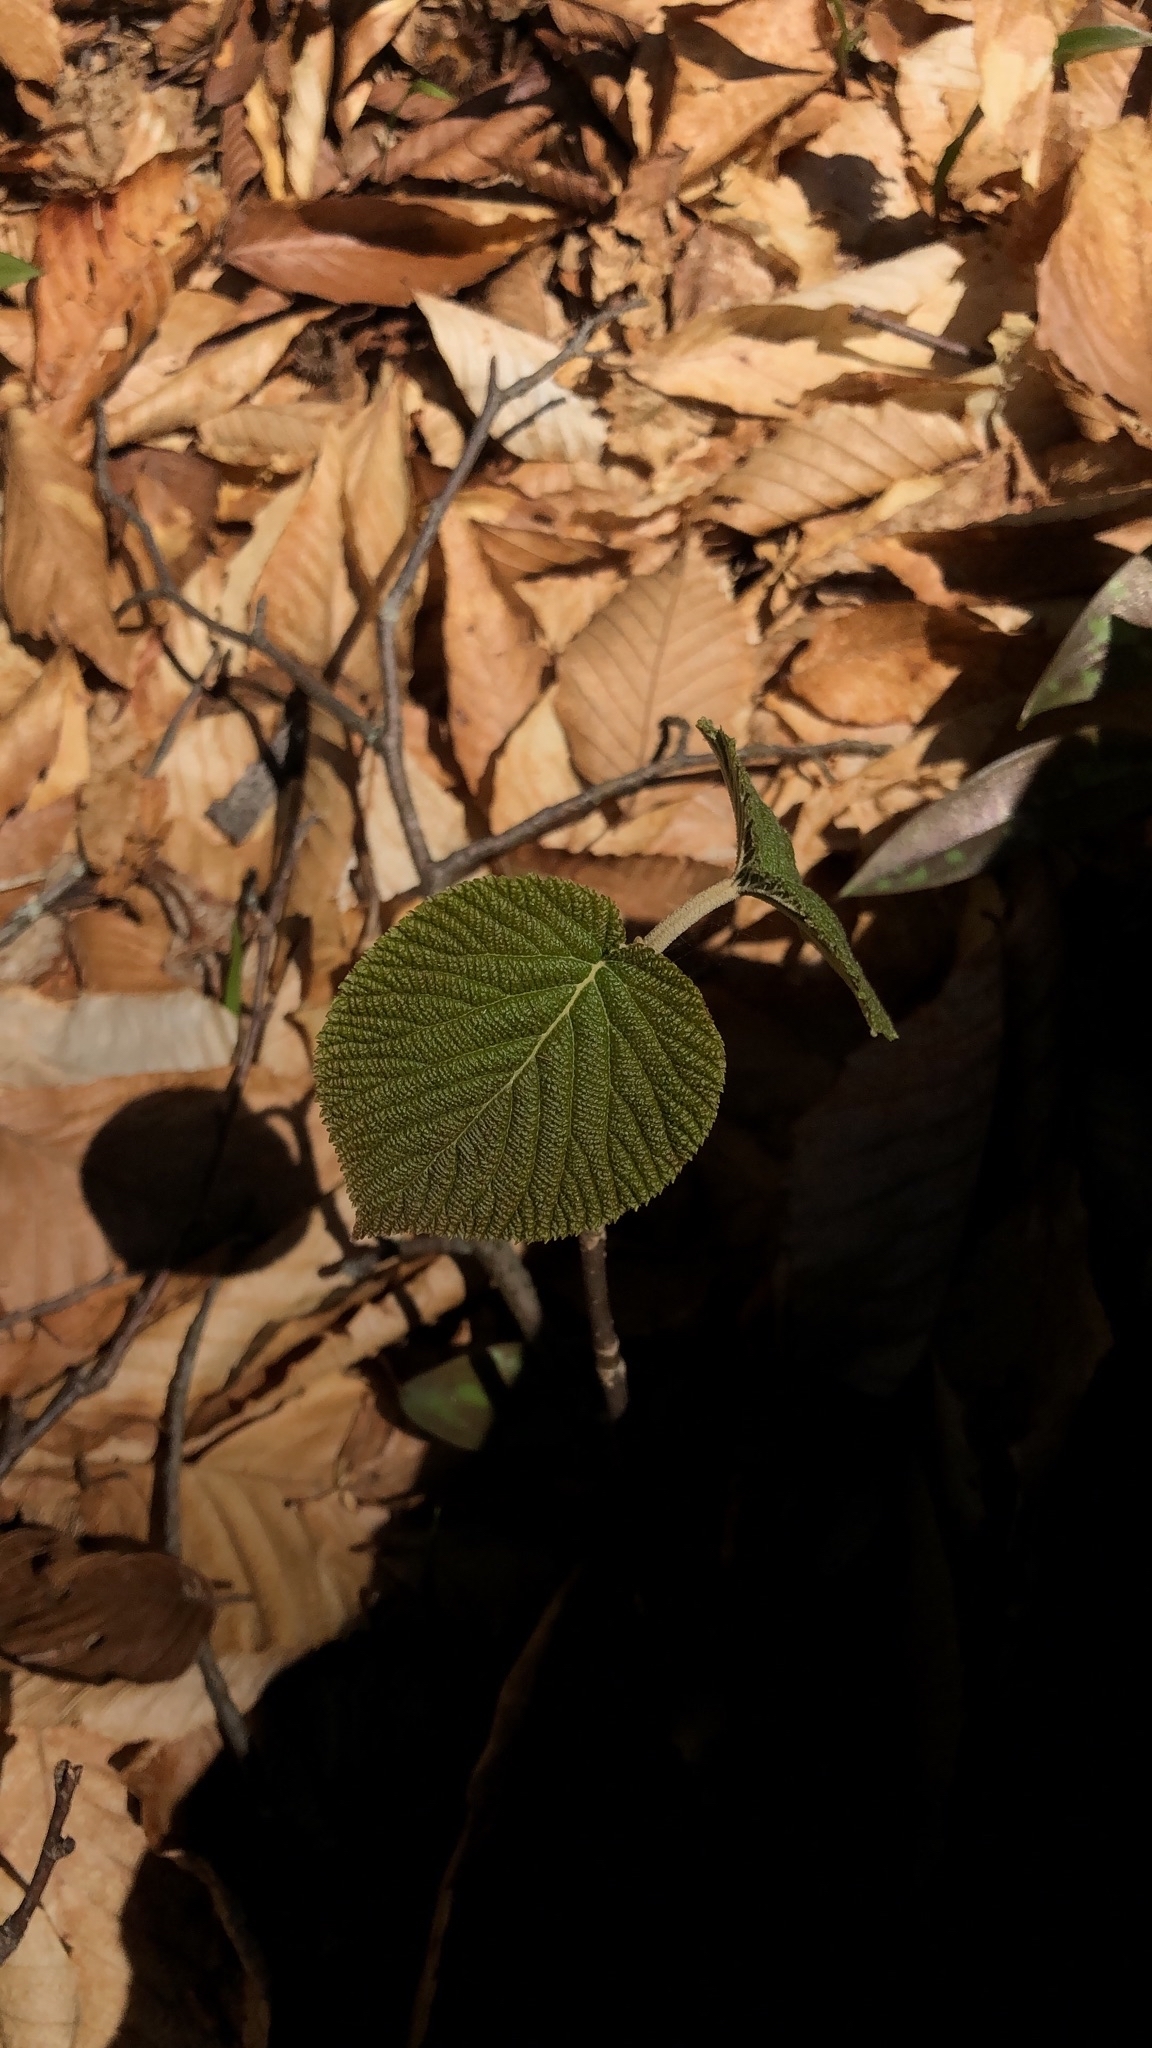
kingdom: Plantae
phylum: Tracheophyta
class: Magnoliopsida
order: Dipsacales
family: Viburnaceae
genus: Viburnum
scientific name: Viburnum lantanoides
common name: Hobblebush
